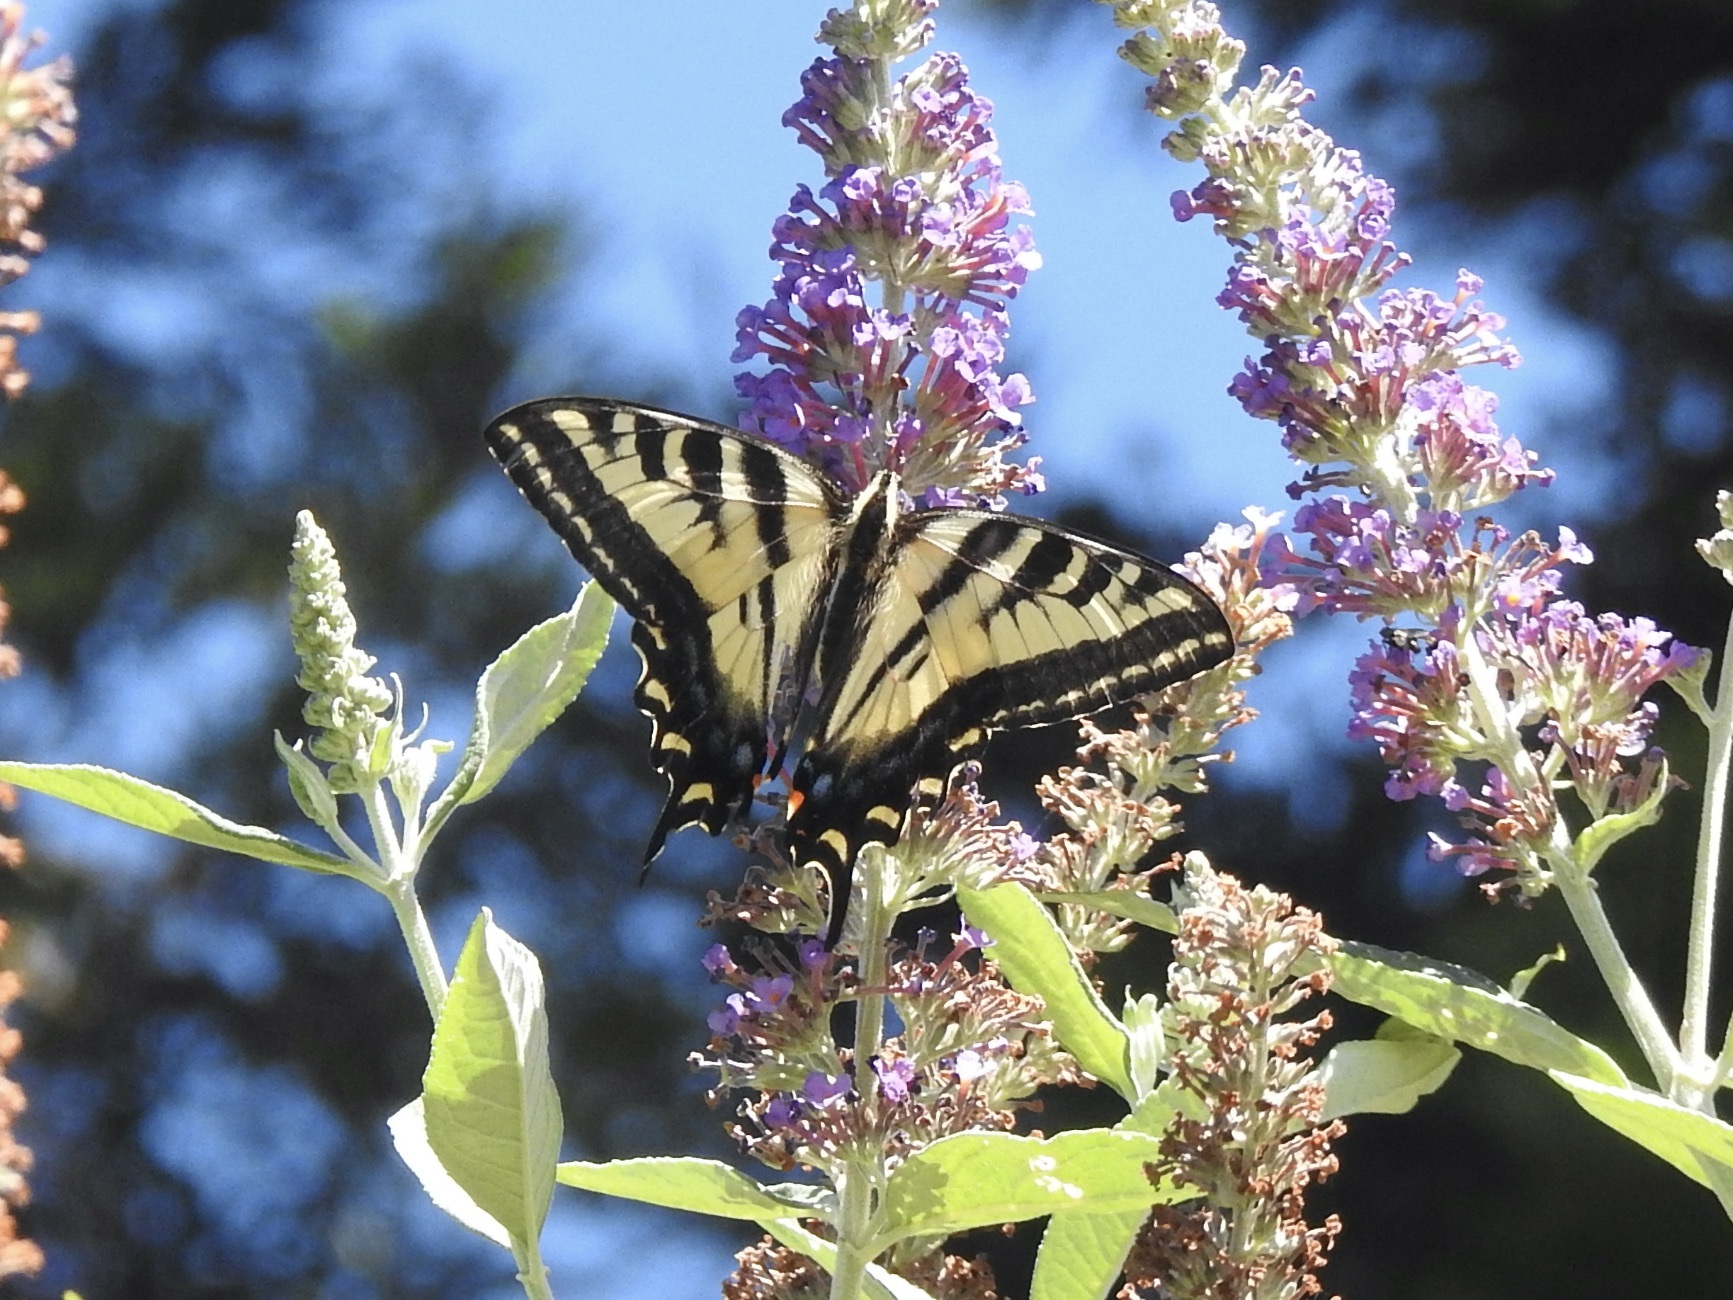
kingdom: Animalia
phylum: Arthropoda
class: Insecta
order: Lepidoptera
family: Papilionidae
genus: Papilio
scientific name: Papilio rutulus
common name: Western tiger swallowtail
